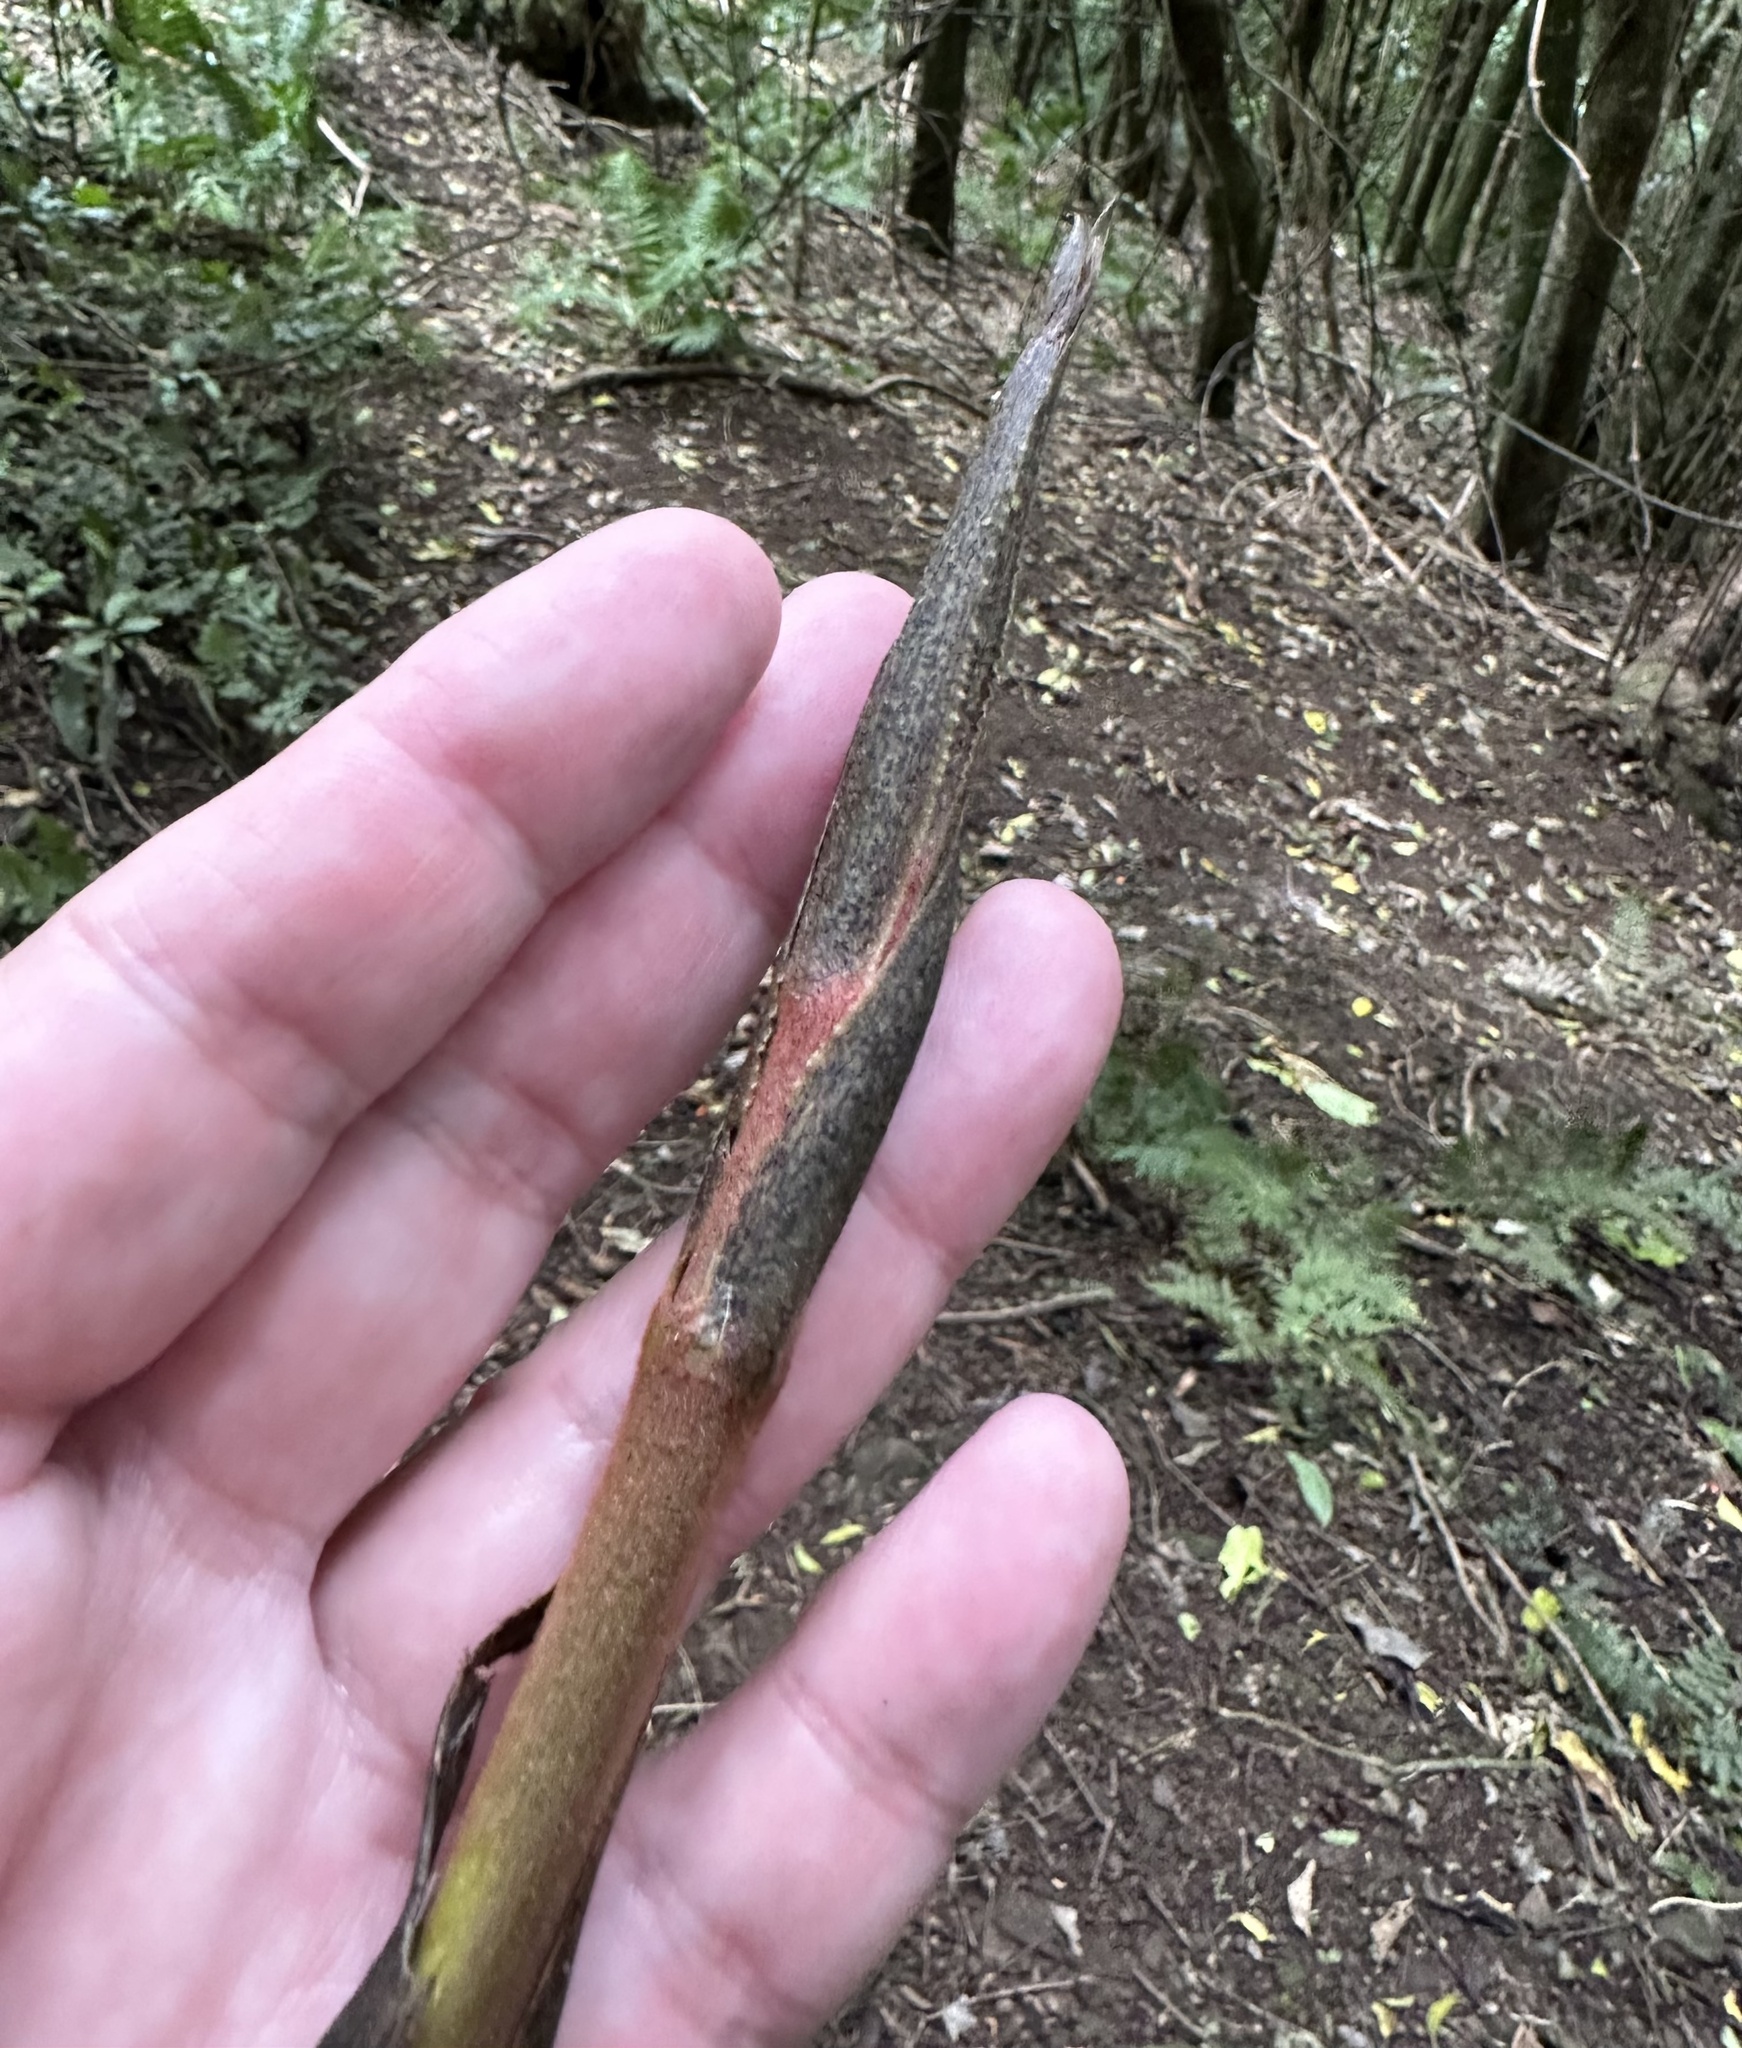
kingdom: Plantae
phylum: Tracheophyta
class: Liliopsida
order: Liliales
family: Ripogonaceae
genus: Ripogonum
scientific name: Ripogonum scandens
